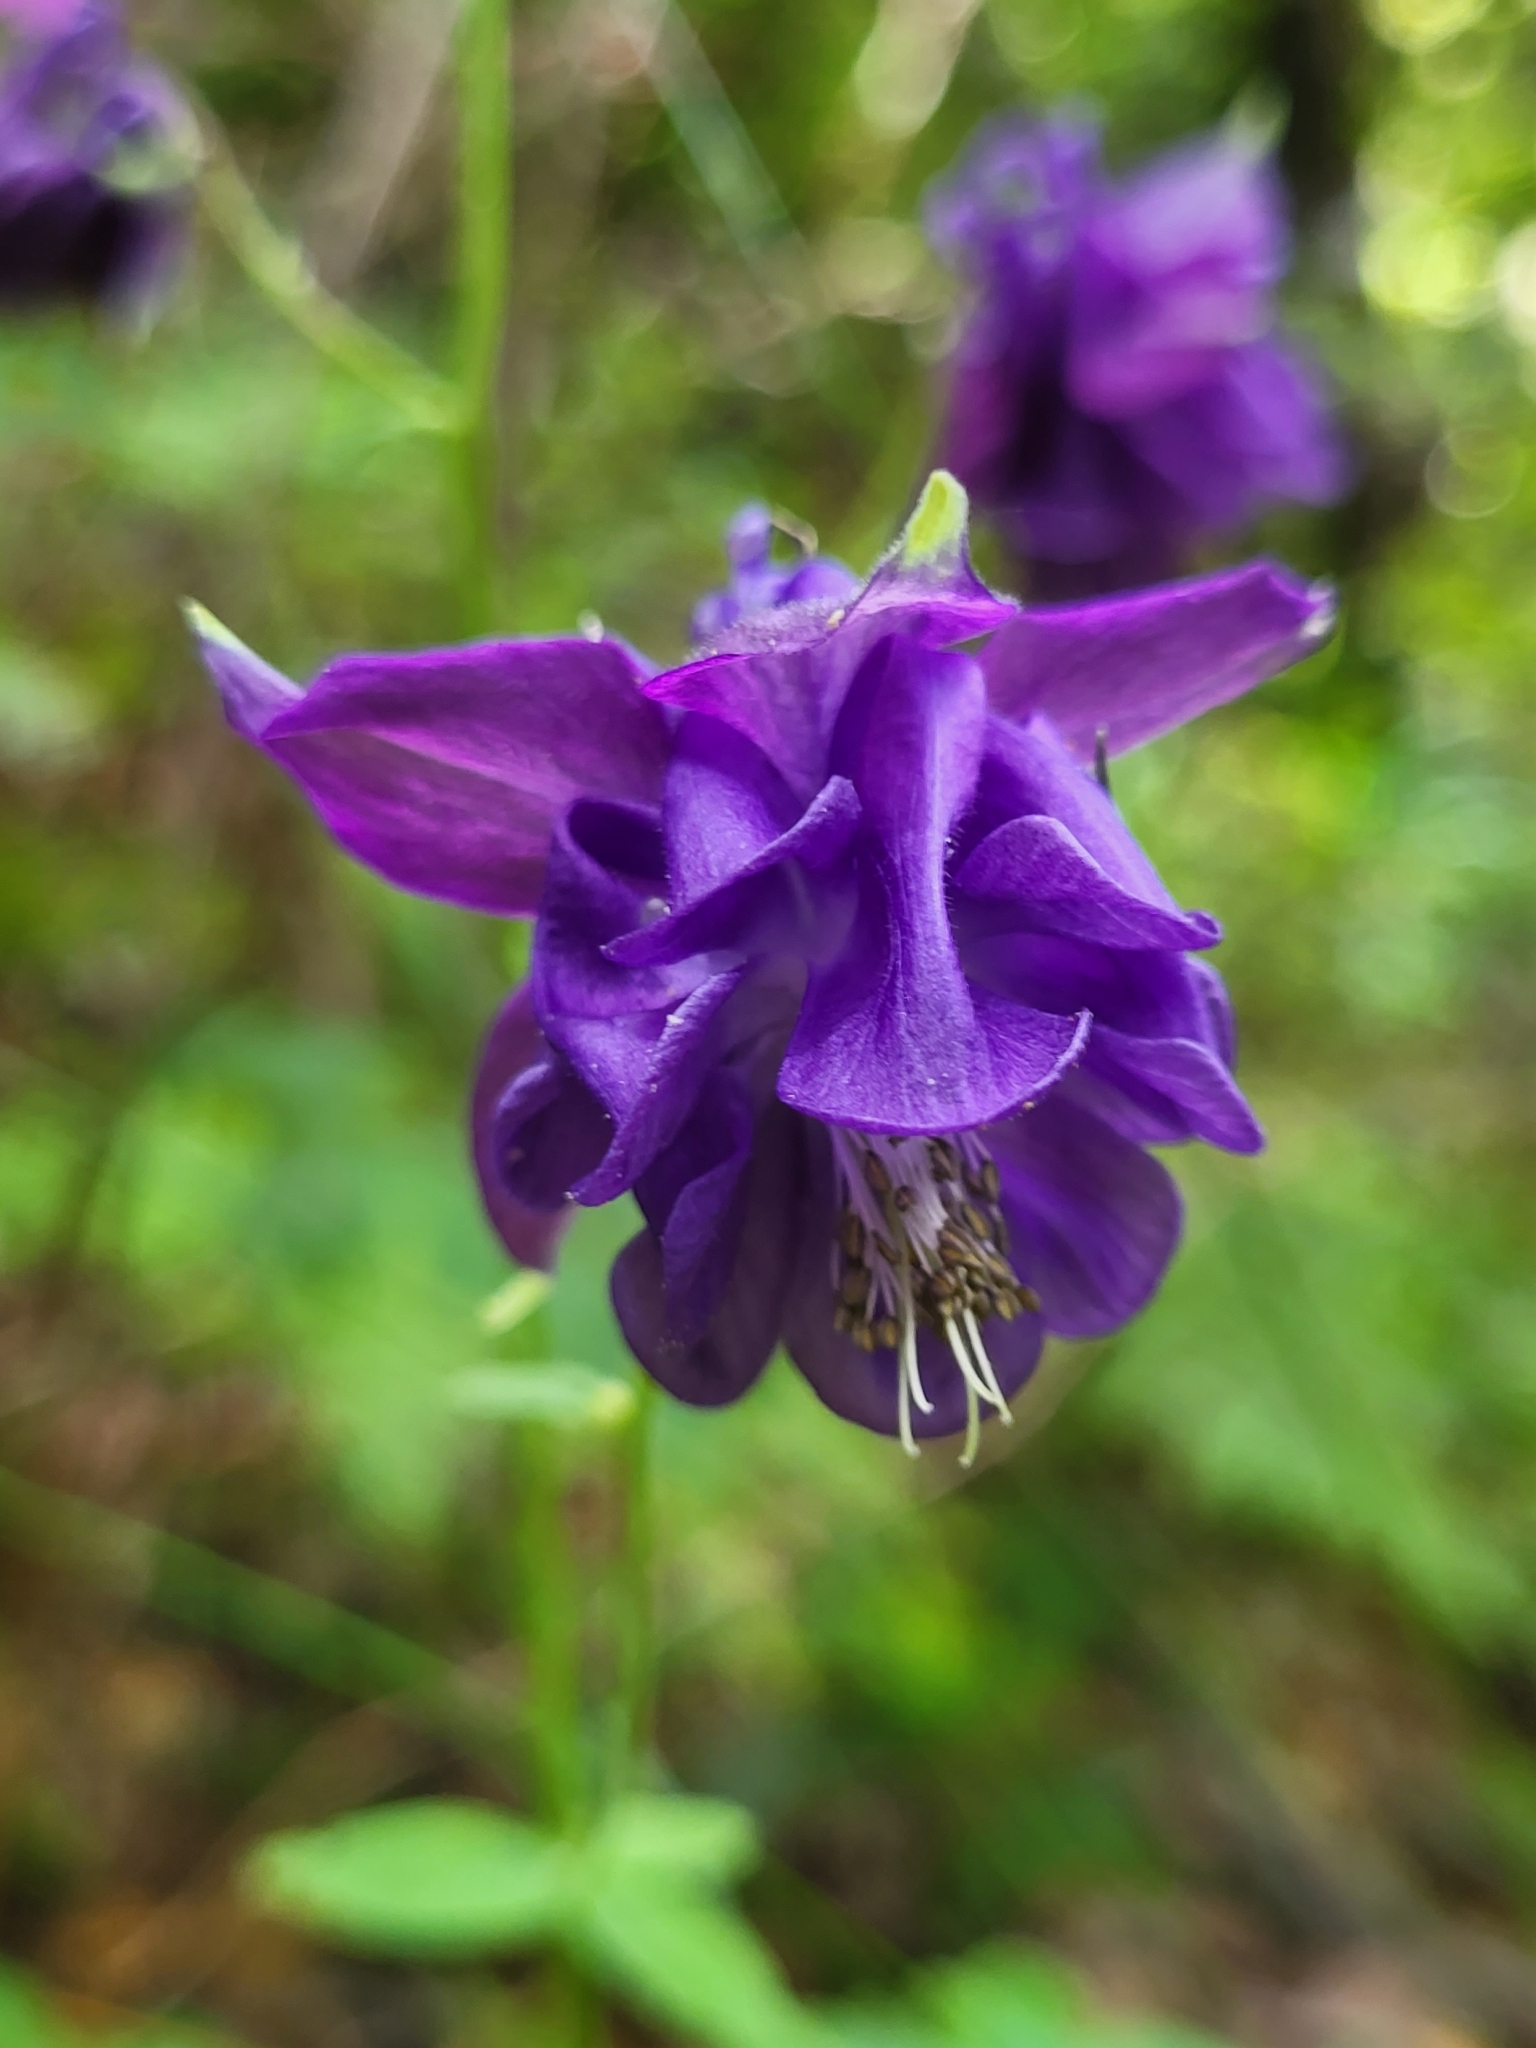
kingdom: Plantae
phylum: Tracheophyta
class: Magnoliopsida
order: Ranunculales
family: Ranunculaceae
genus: Aquilegia
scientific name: Aquilegia vulgaris
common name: Columbine
